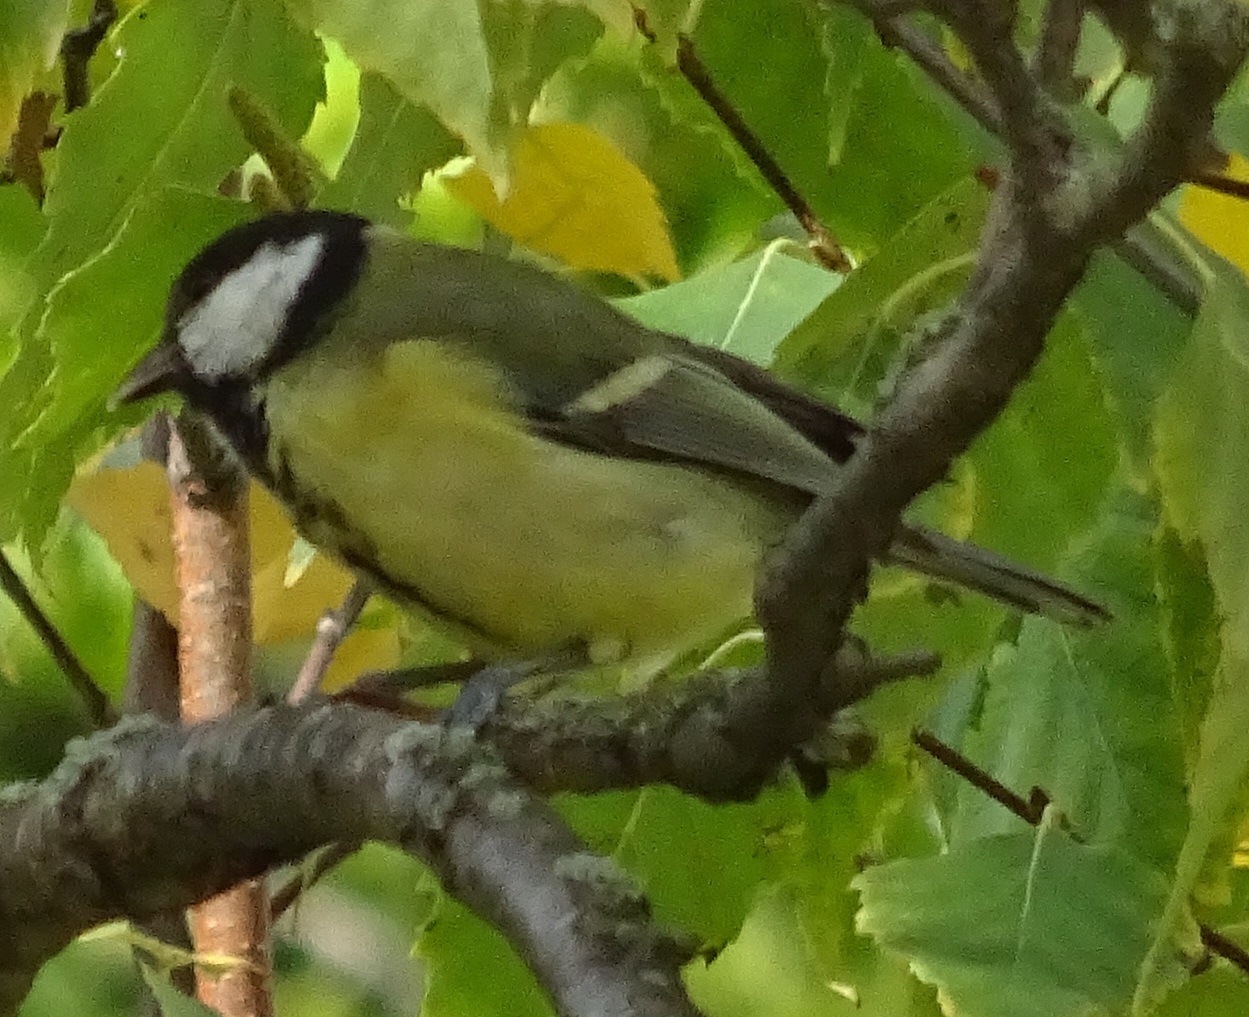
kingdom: Animalia
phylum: Chordata
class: Aves
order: Passeriformes
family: Paridae
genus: Parus
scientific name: Parus major
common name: Great tit
